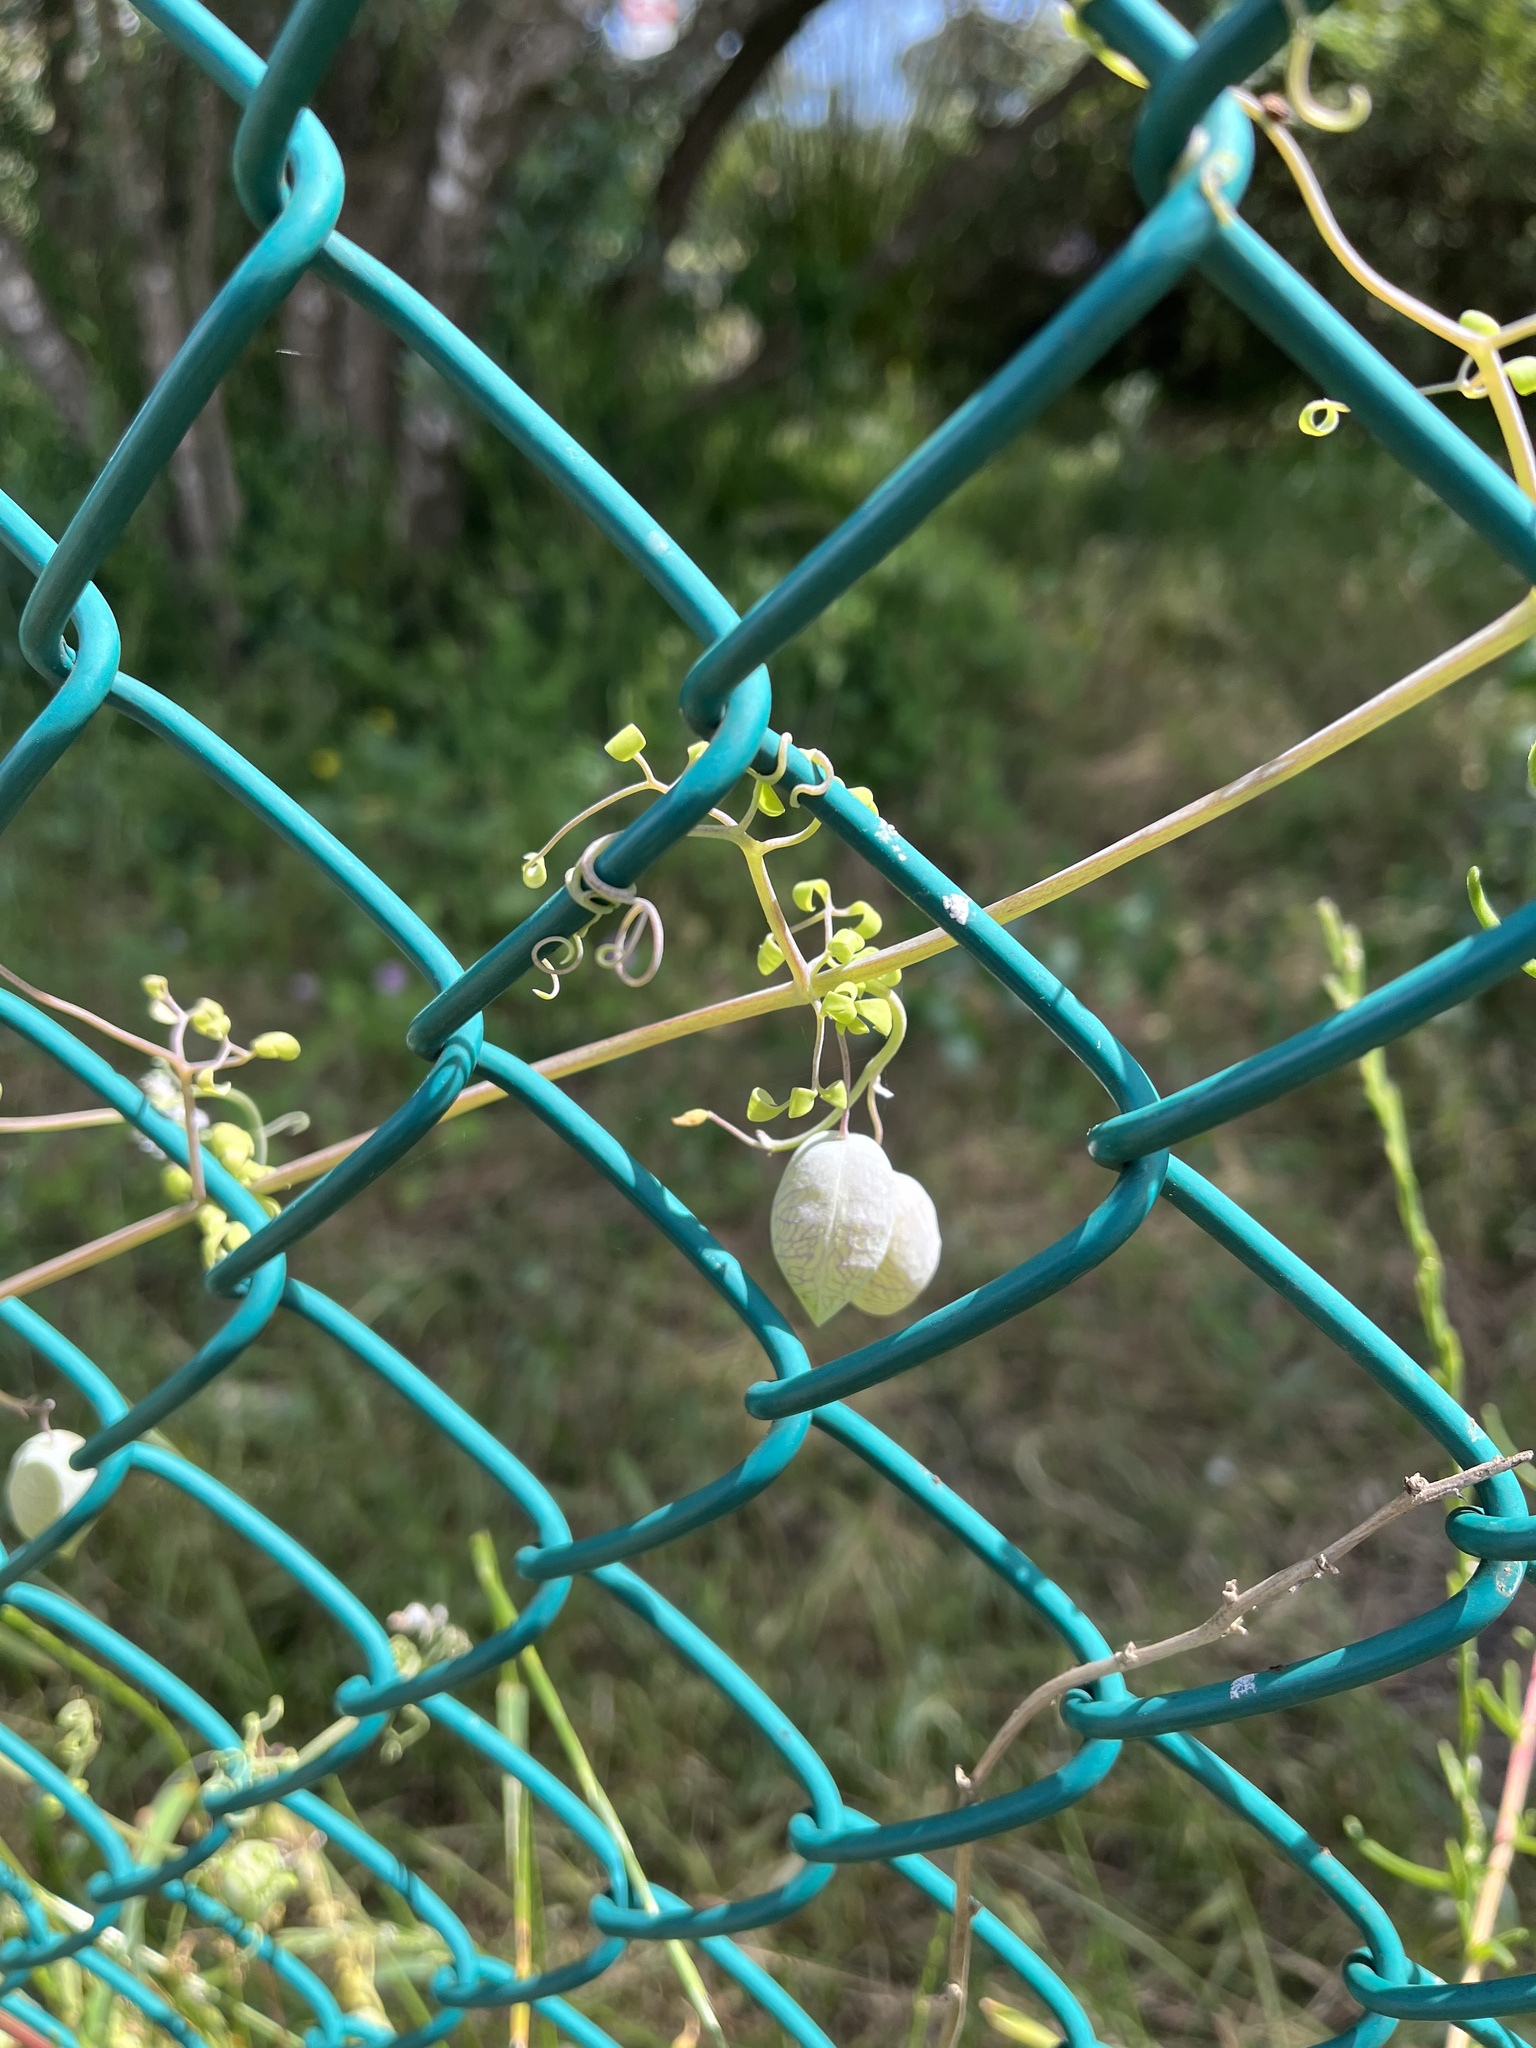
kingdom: Plantae
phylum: Tracheophyta
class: Magnoliopsida
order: Ranunculales
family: Papaveraceae
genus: Cysticapnos
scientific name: Cysticapnos vesicaria
